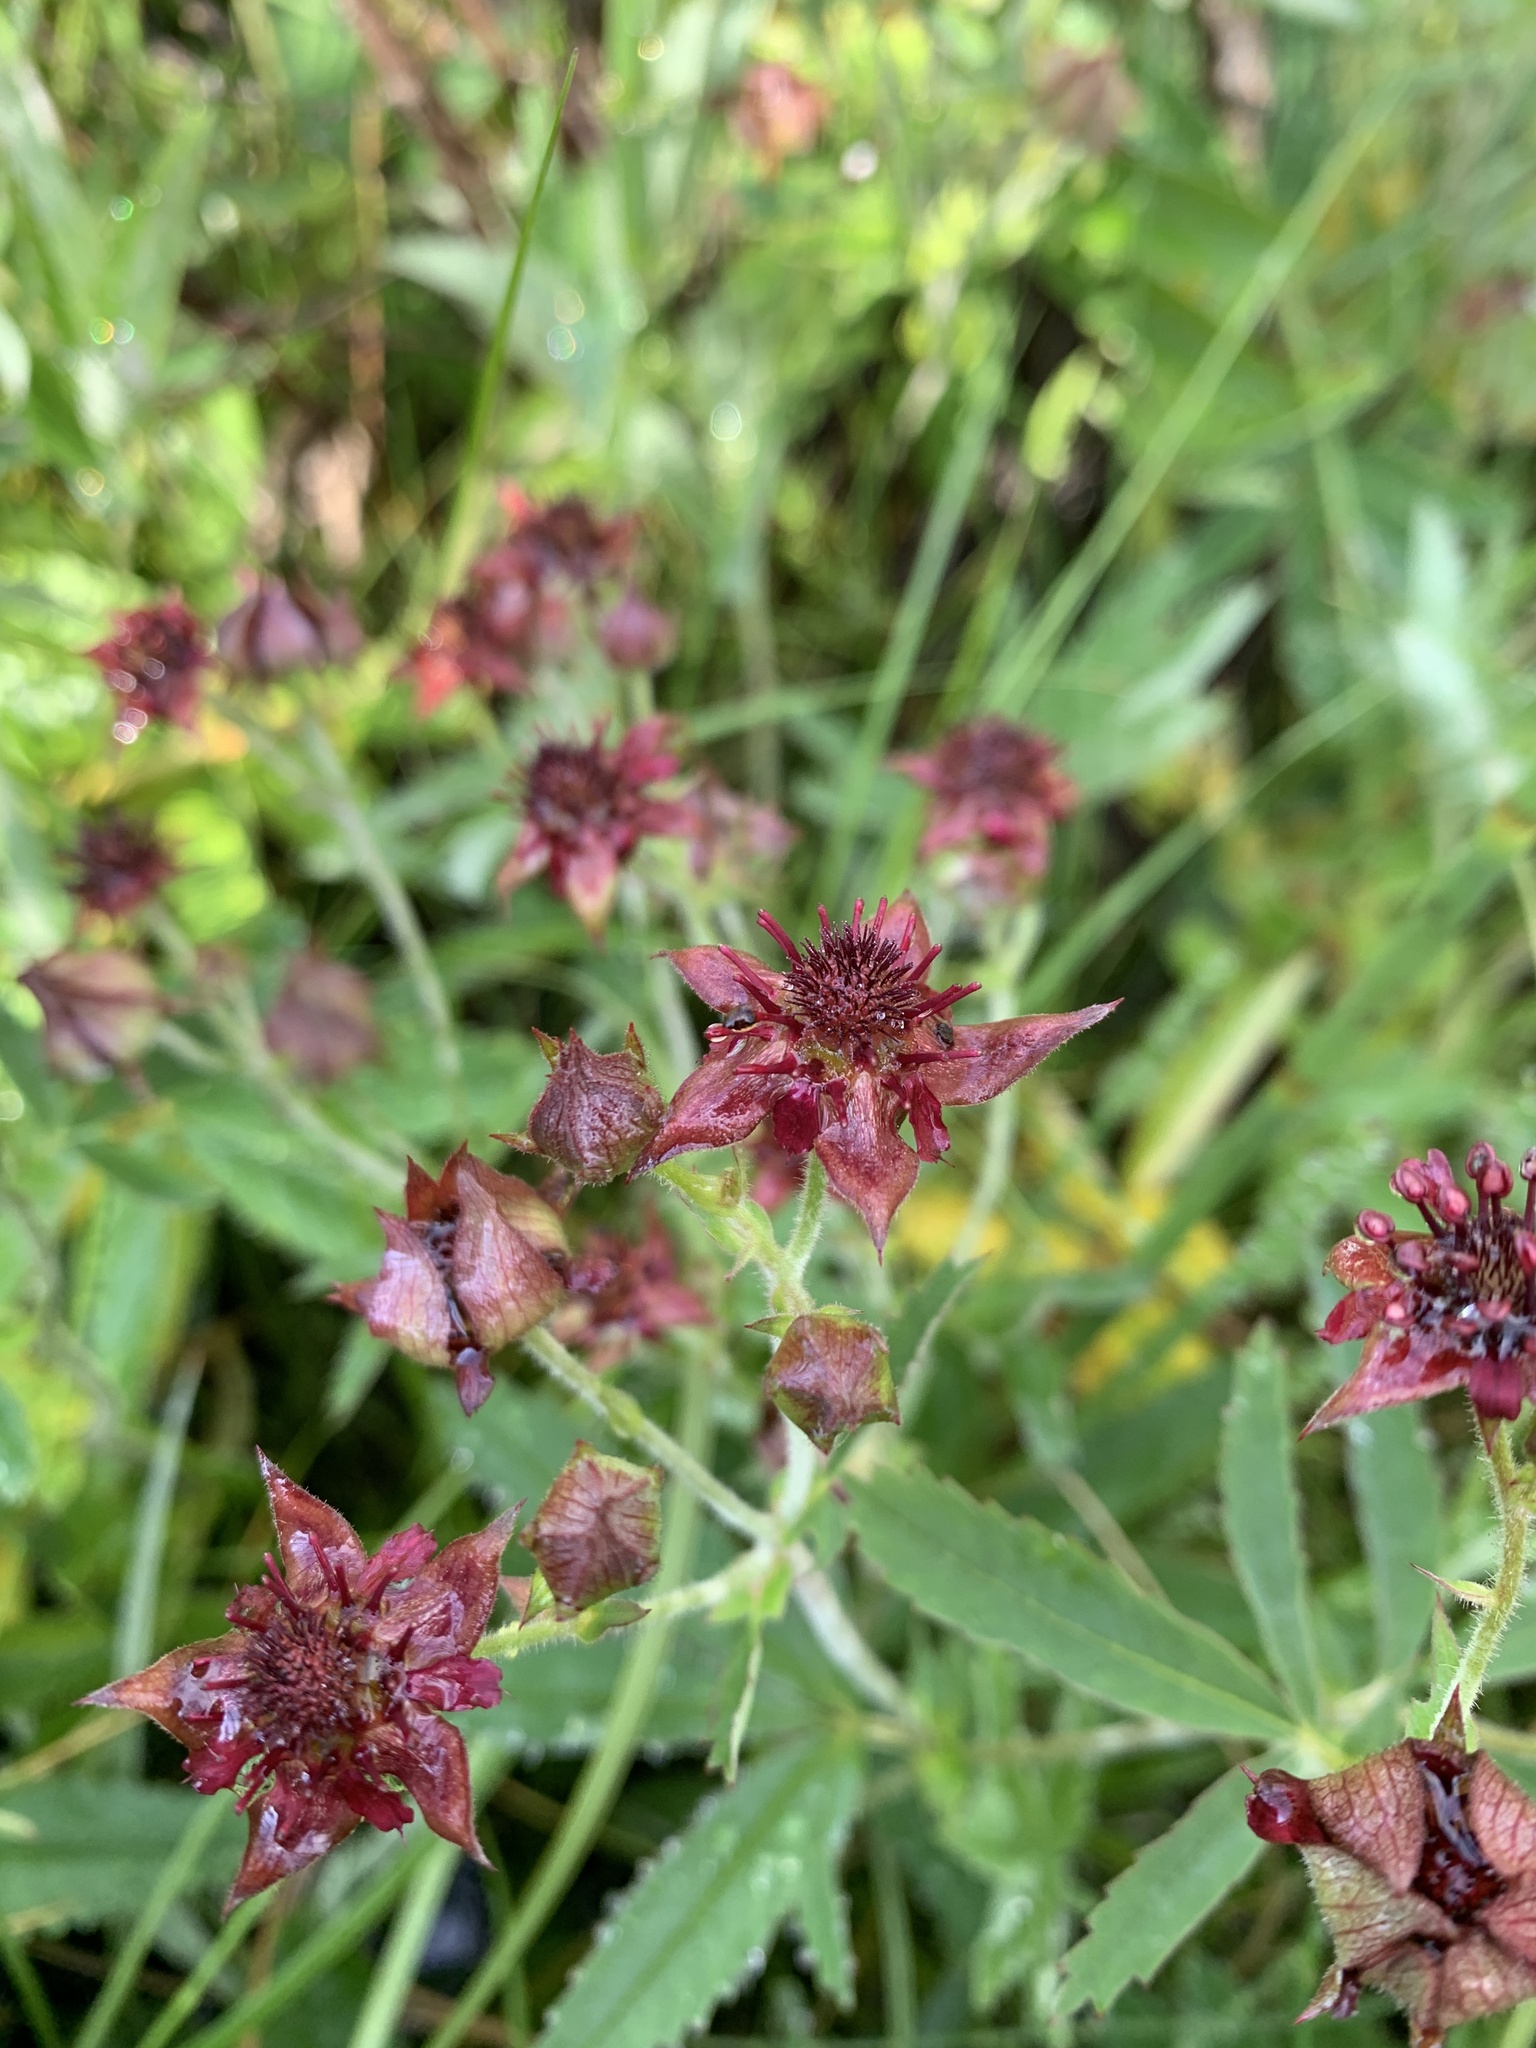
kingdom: Plantae
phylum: Tracheophyta
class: Magnoliopsida
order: Rosales
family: Rosaceae
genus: Comarum
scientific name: Comarum palustre
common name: Marsh cinquefoil
